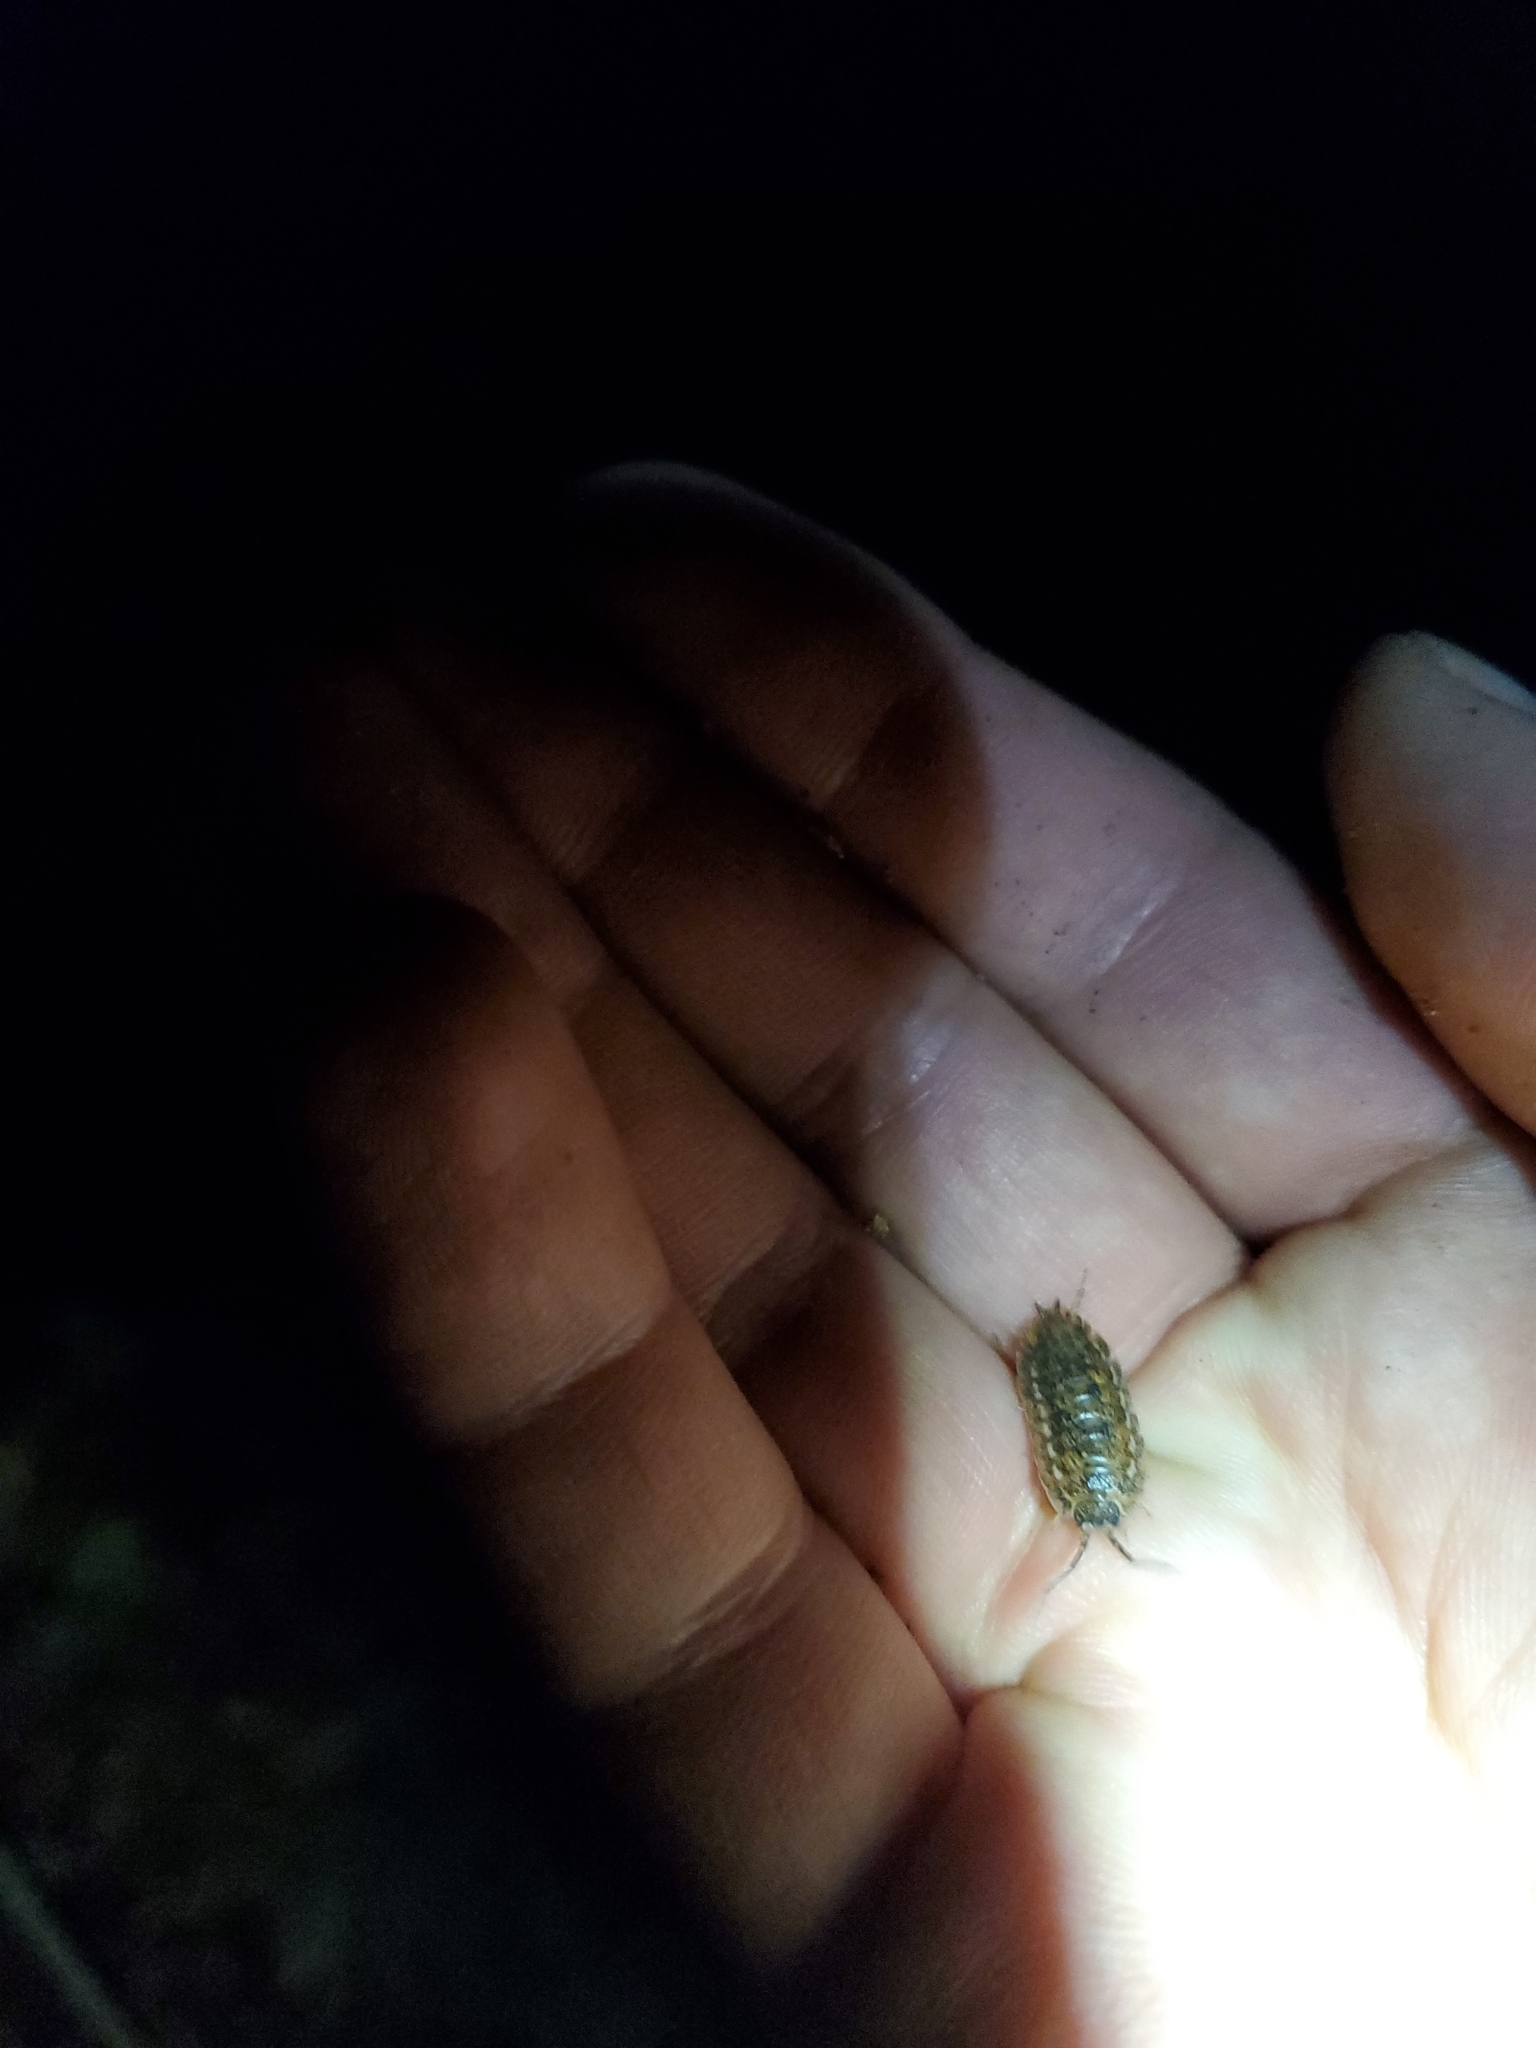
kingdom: Animalia
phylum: Arthropoda
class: Malacostraca
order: Isopoda
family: Trachelipodidae
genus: Trachelipus
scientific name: Trachelipus rathkii
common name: Isopod
